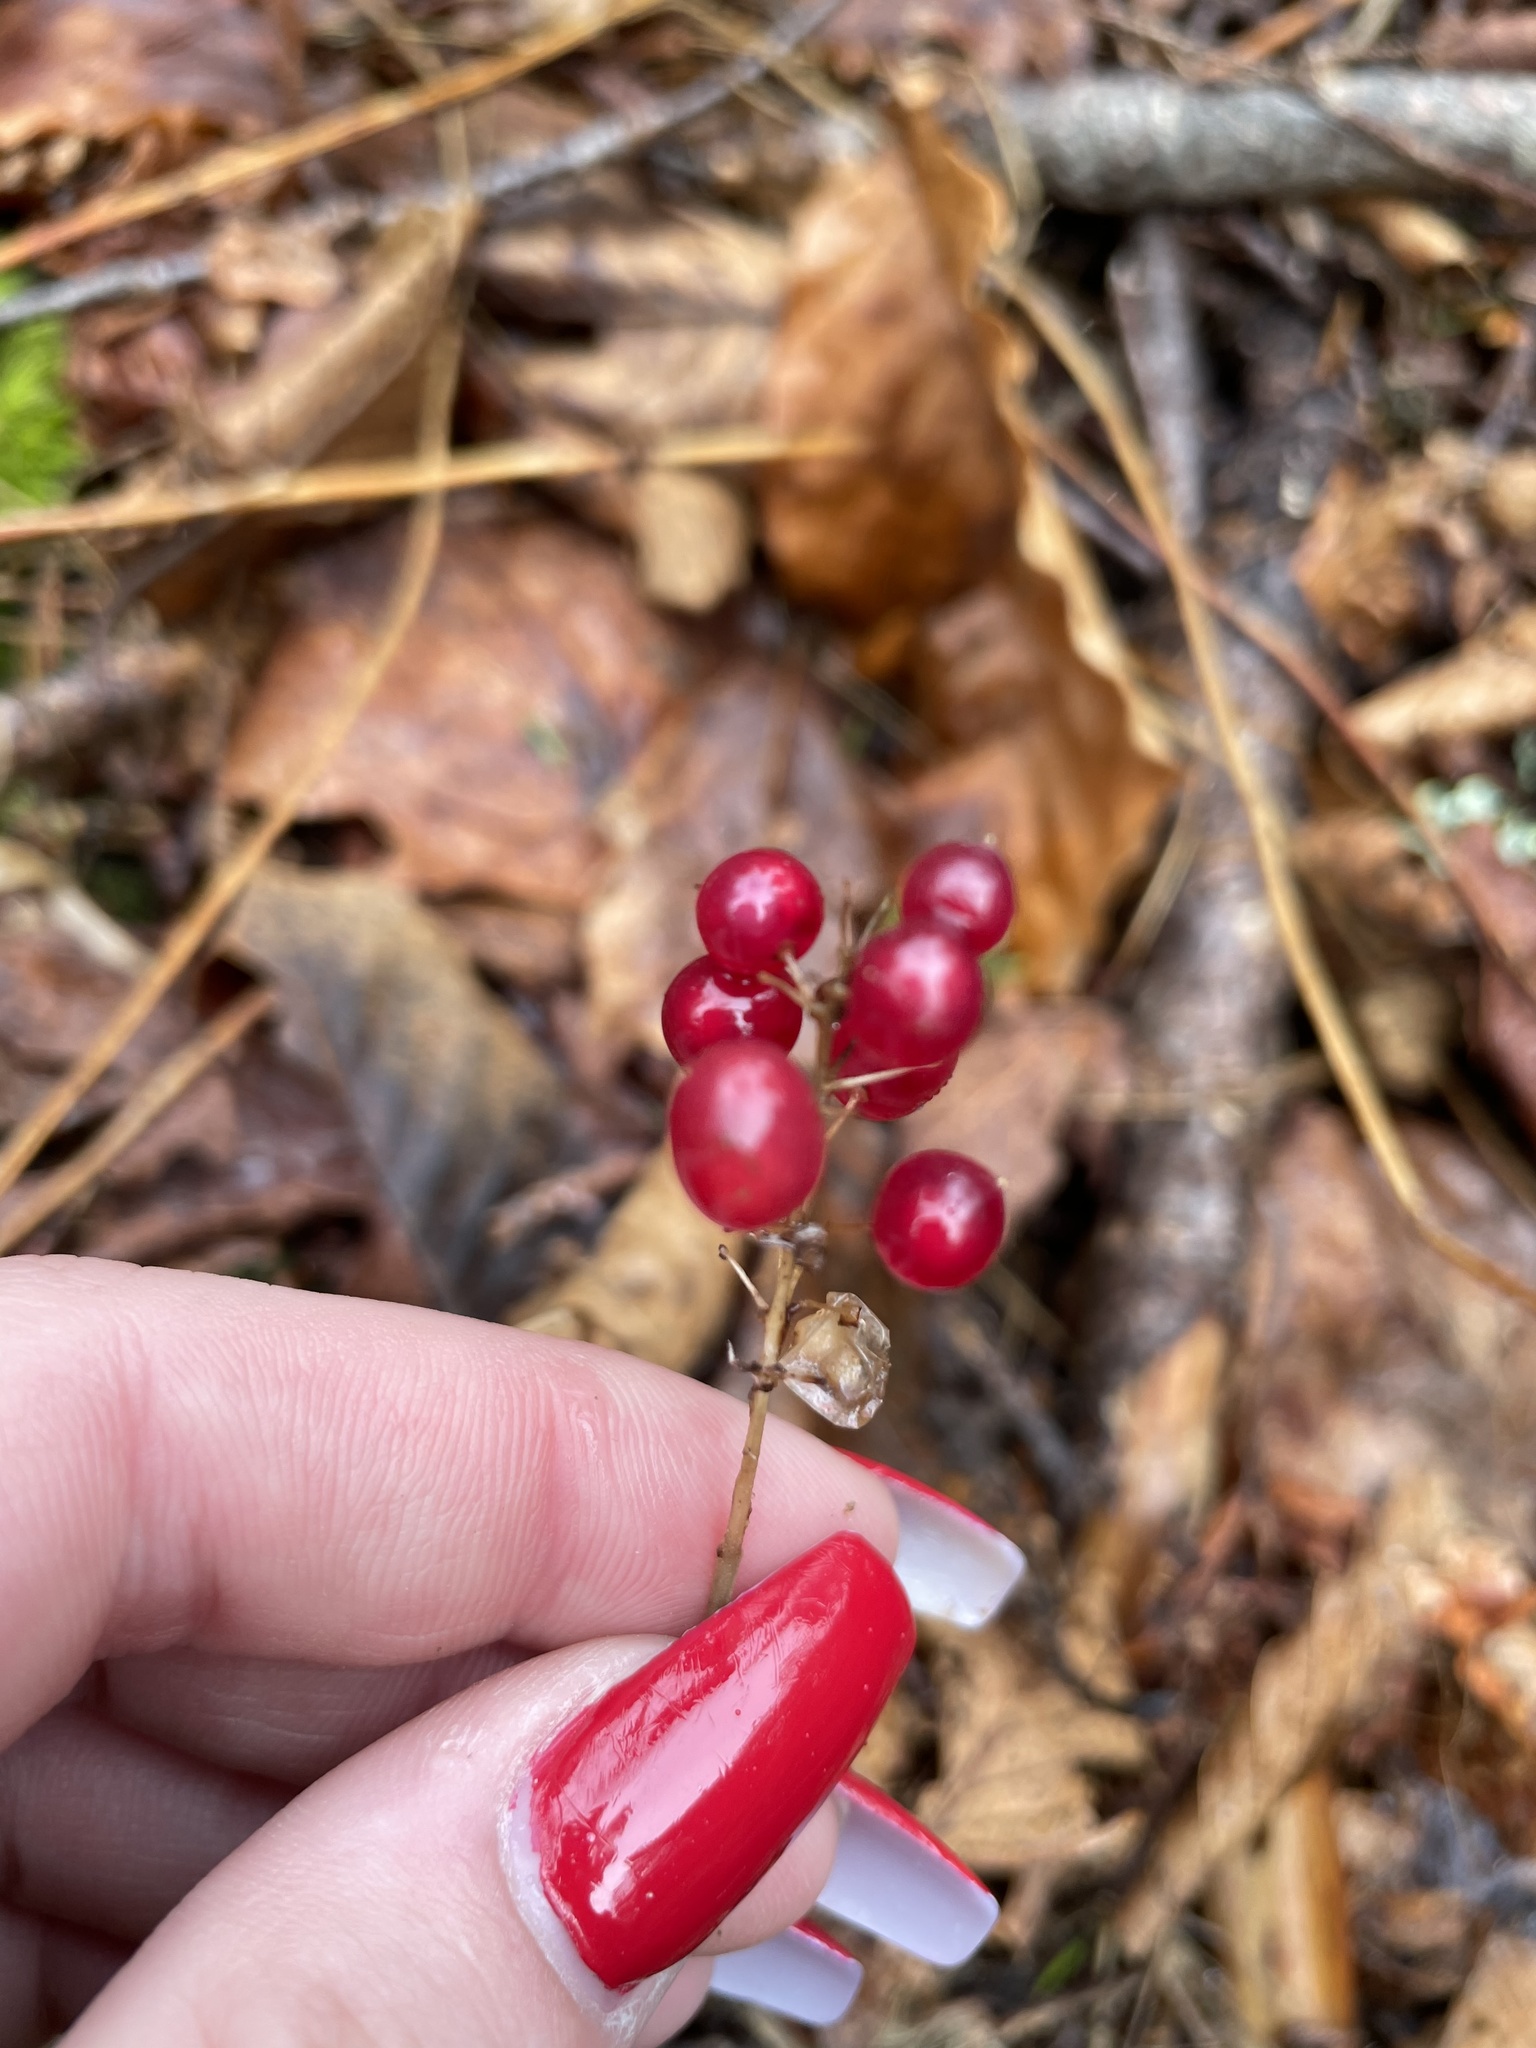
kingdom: Plantae
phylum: Tracheophyta
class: Liliopsida
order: Asparagales
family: Asparagaceae
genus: Maianthemum
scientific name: Maianthemum canadense
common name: False lily-of-the-valley
